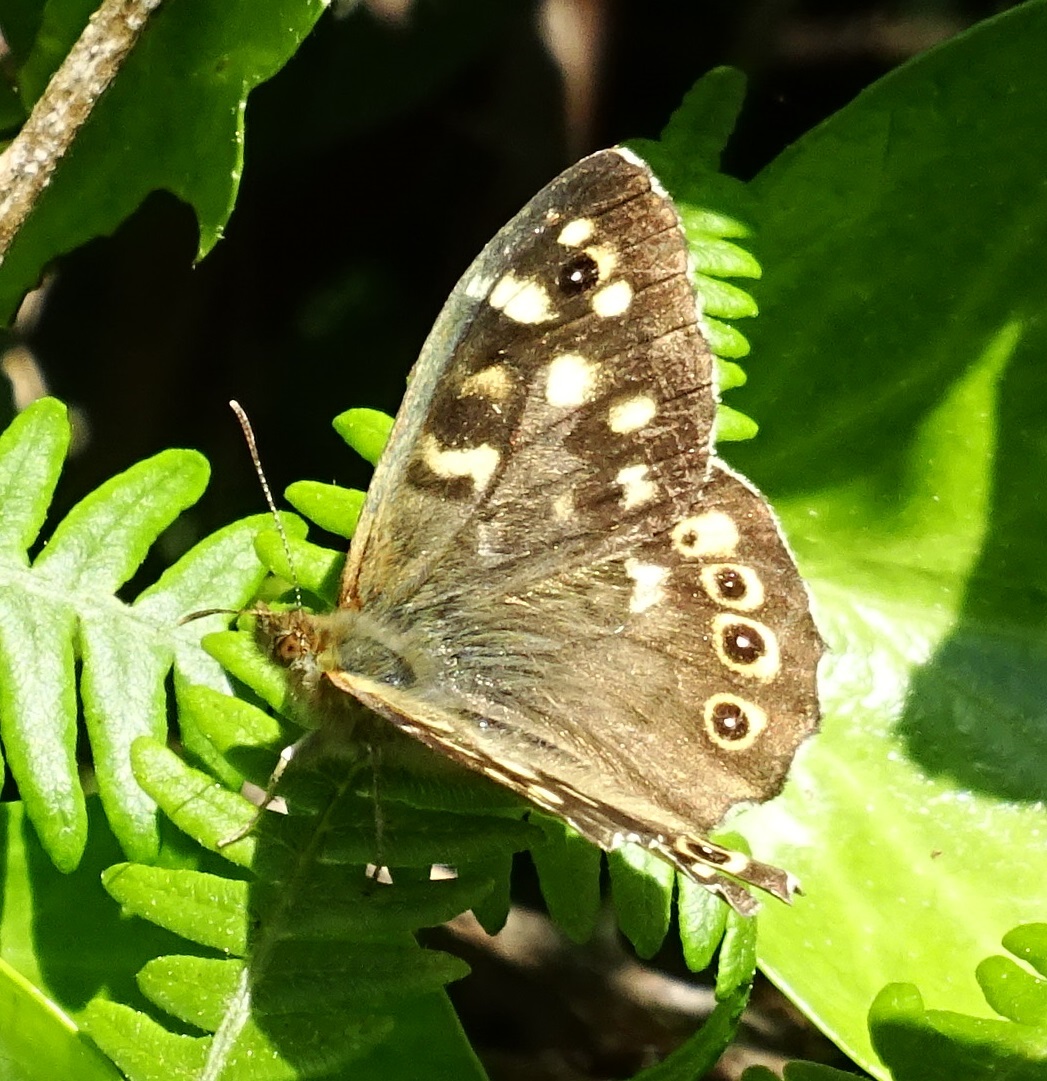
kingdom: Animalia
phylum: Arthropoda
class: Insecta
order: Lepidoptera
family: Nymphalidae
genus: Pararge
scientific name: Pararge aegeria
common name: Speckled wood
